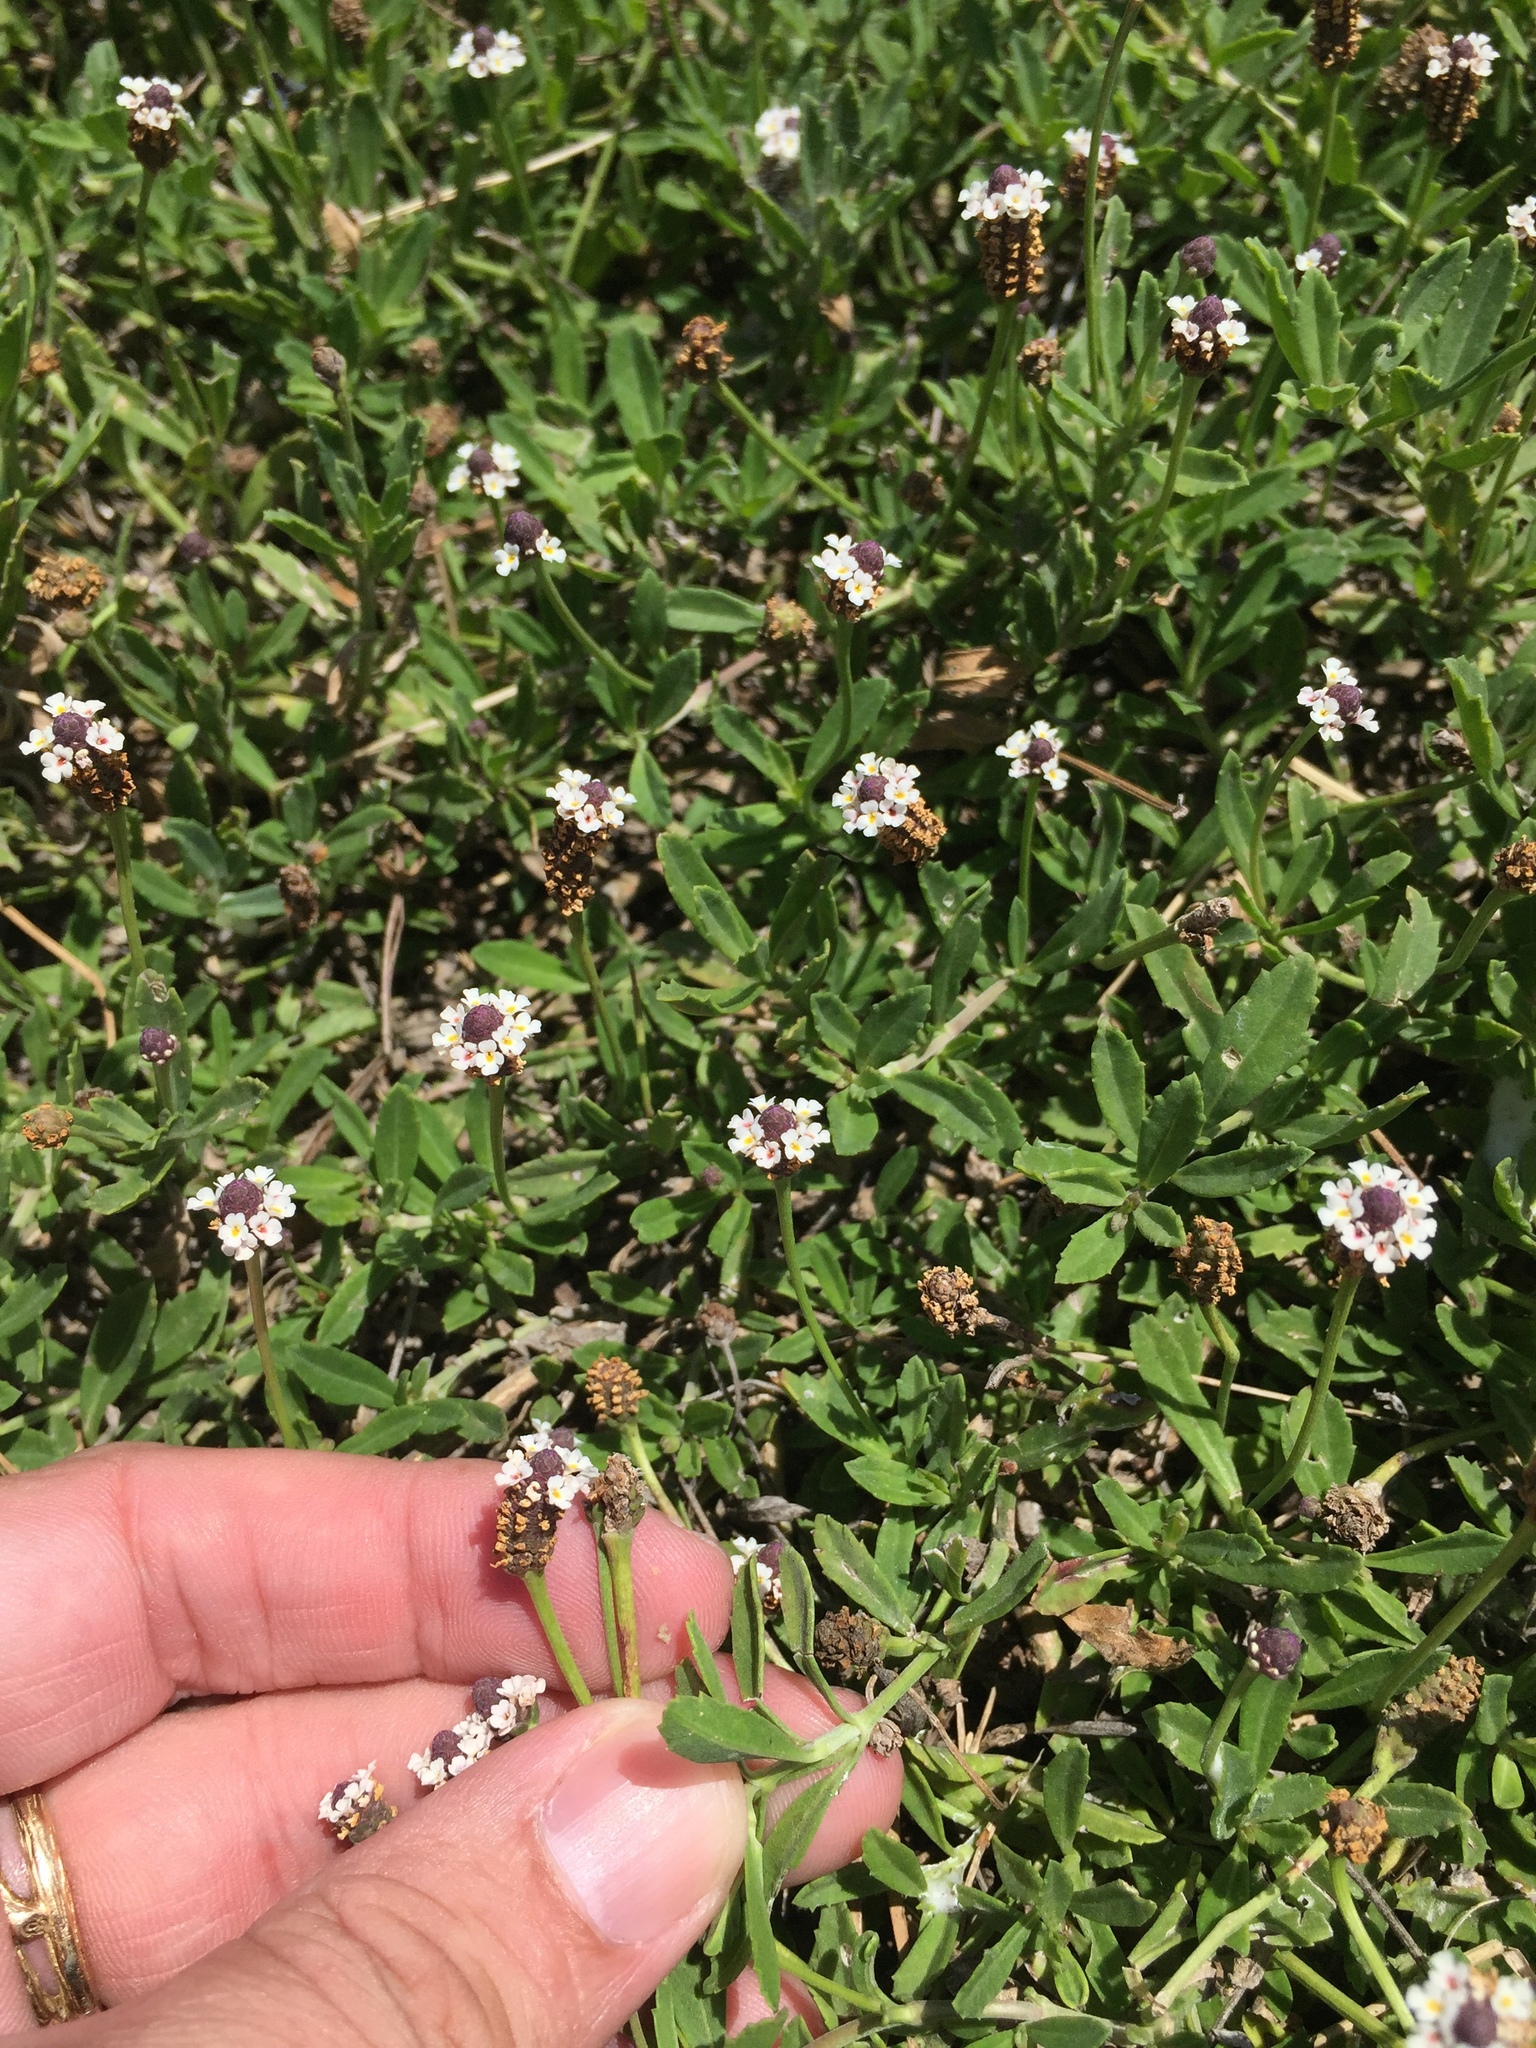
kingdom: Plantae
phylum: Tracheophyta
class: Magnoliopsida
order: Lamiales
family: Verbenaceae
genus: Phyla
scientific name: Phyla nodiflora
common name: Frogfruit
